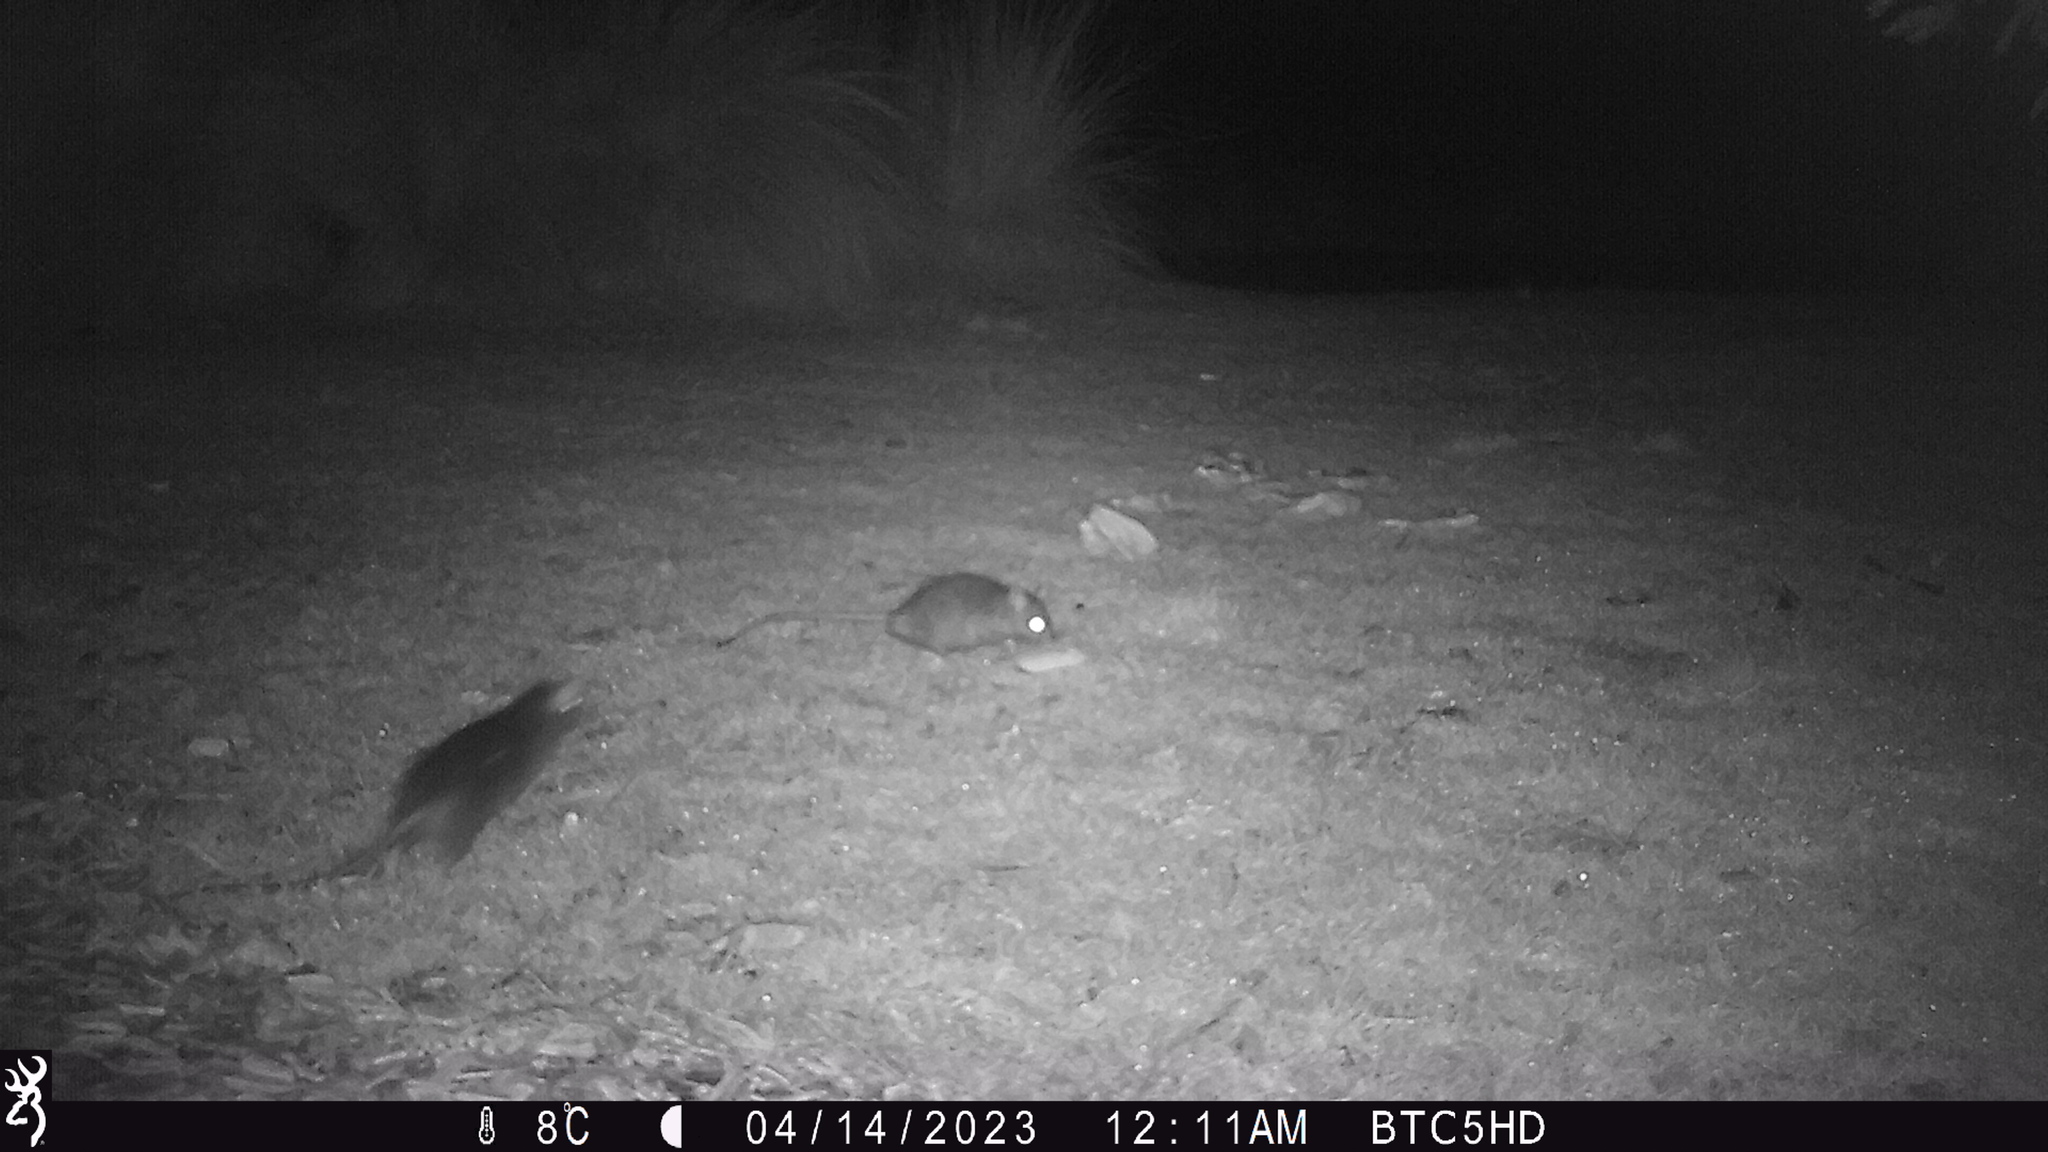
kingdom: Animalia
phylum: Chordata
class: Mammalia
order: Rodentia
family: Muridae
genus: Rattus
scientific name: Rattus rattus
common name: Black rat
